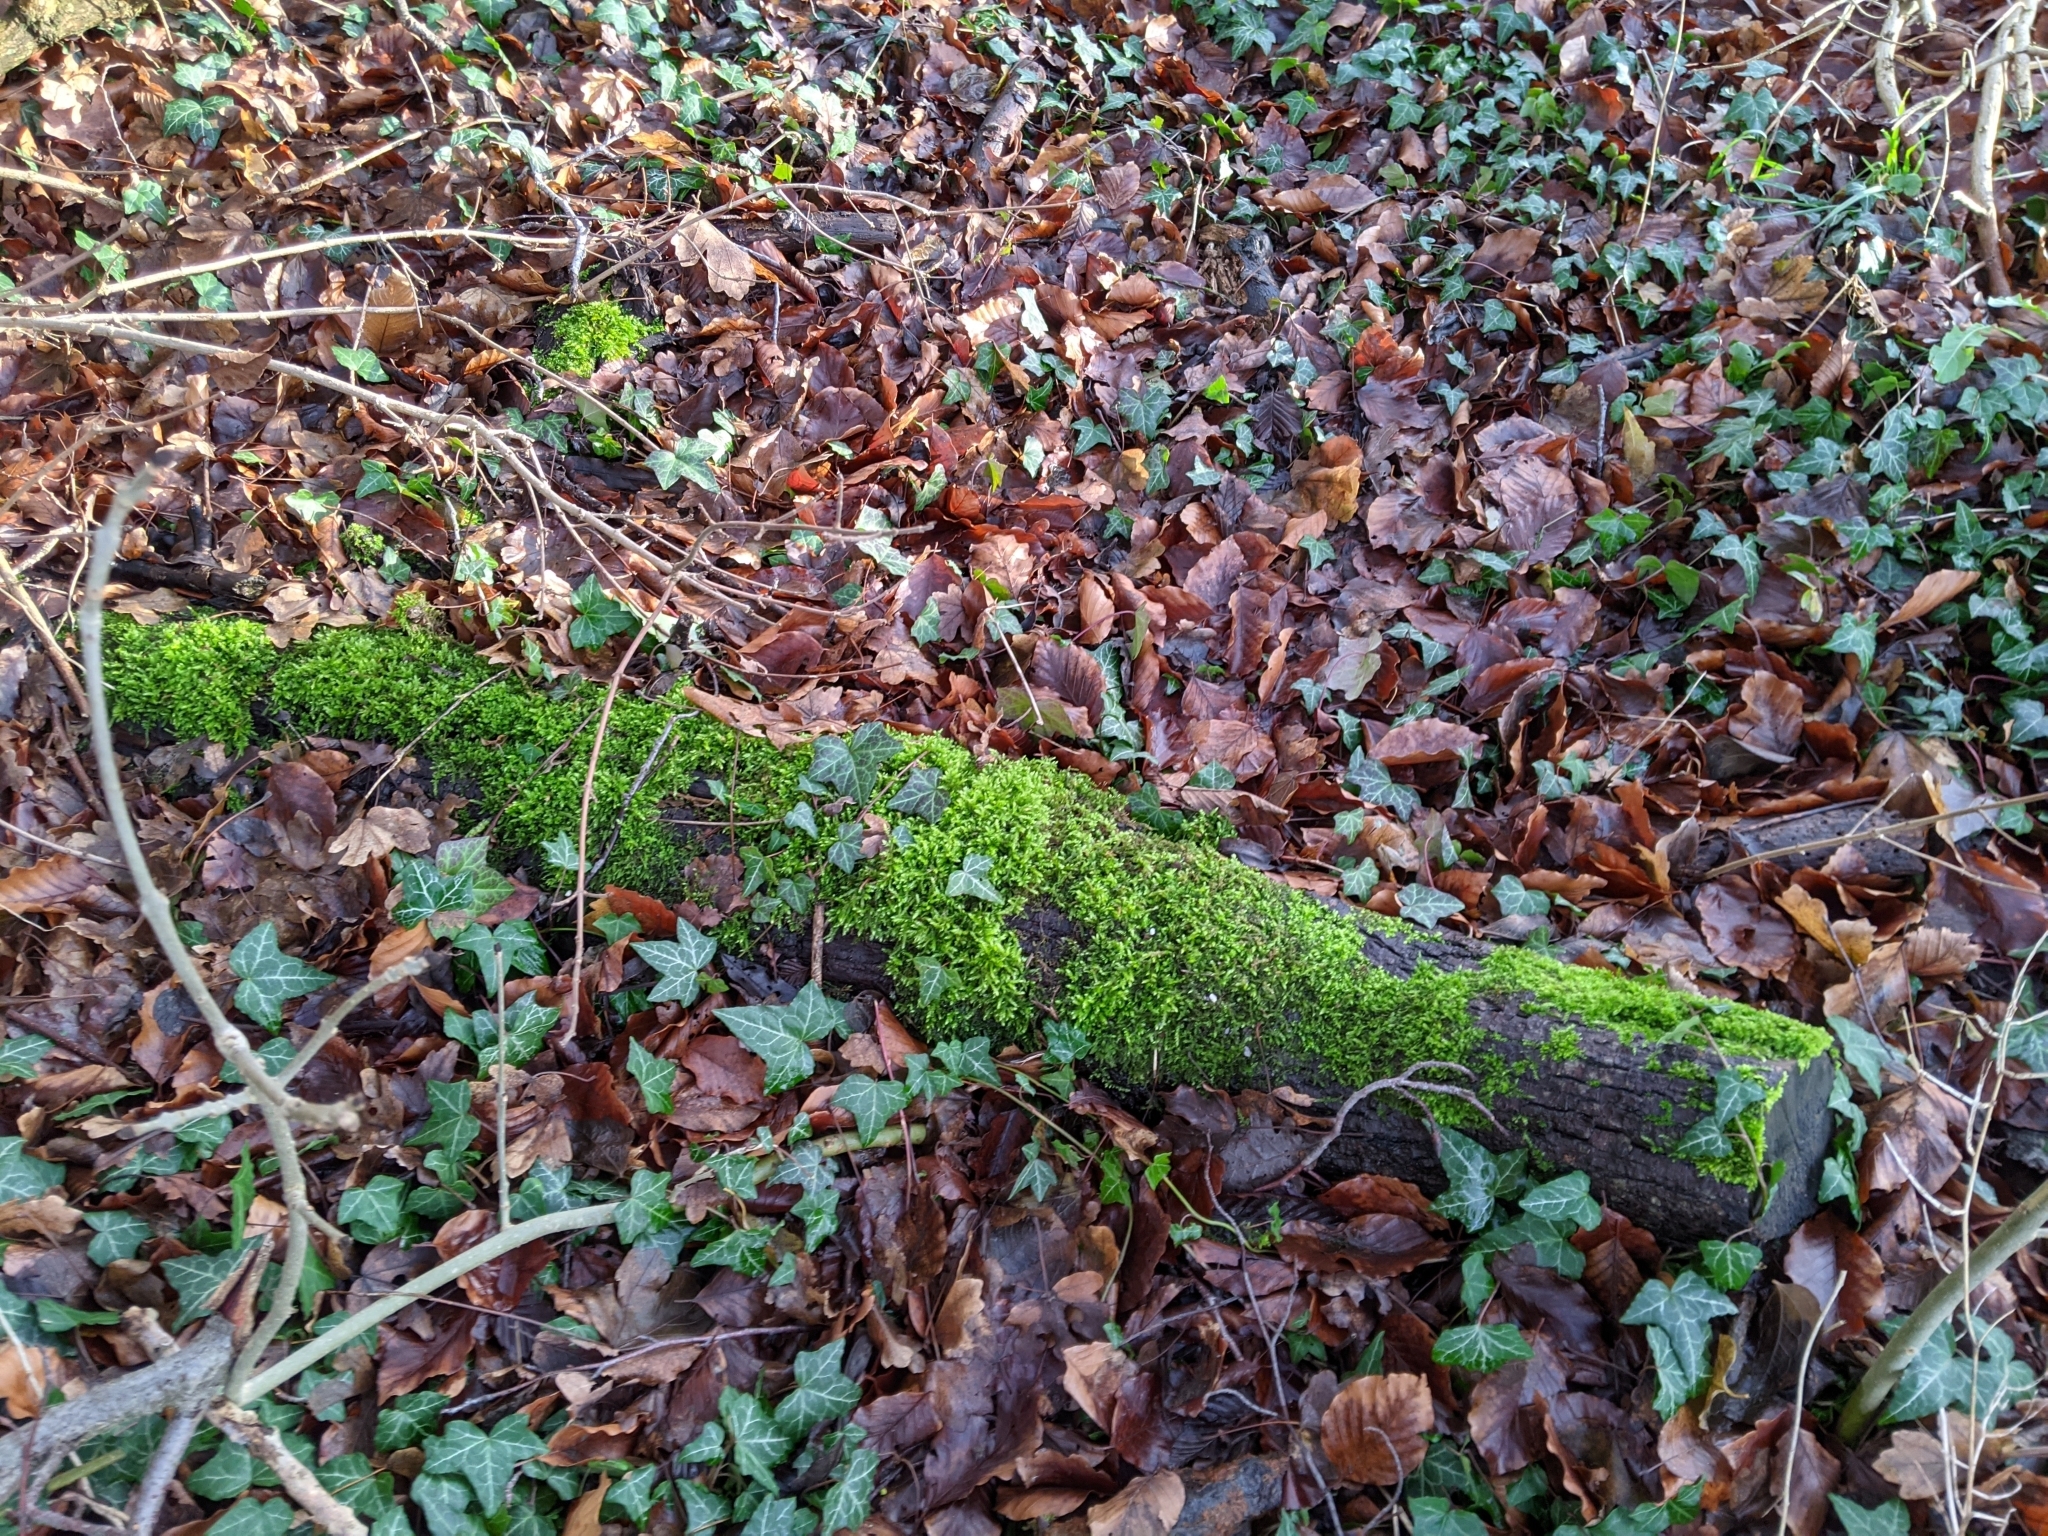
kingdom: Plantae
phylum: Bryophyta
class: Bryopsida
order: Hypnales
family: Brachytheciaceae
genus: Brachythecium
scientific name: Brachythecium rutabulum
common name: Rough-stalked feather-moss
